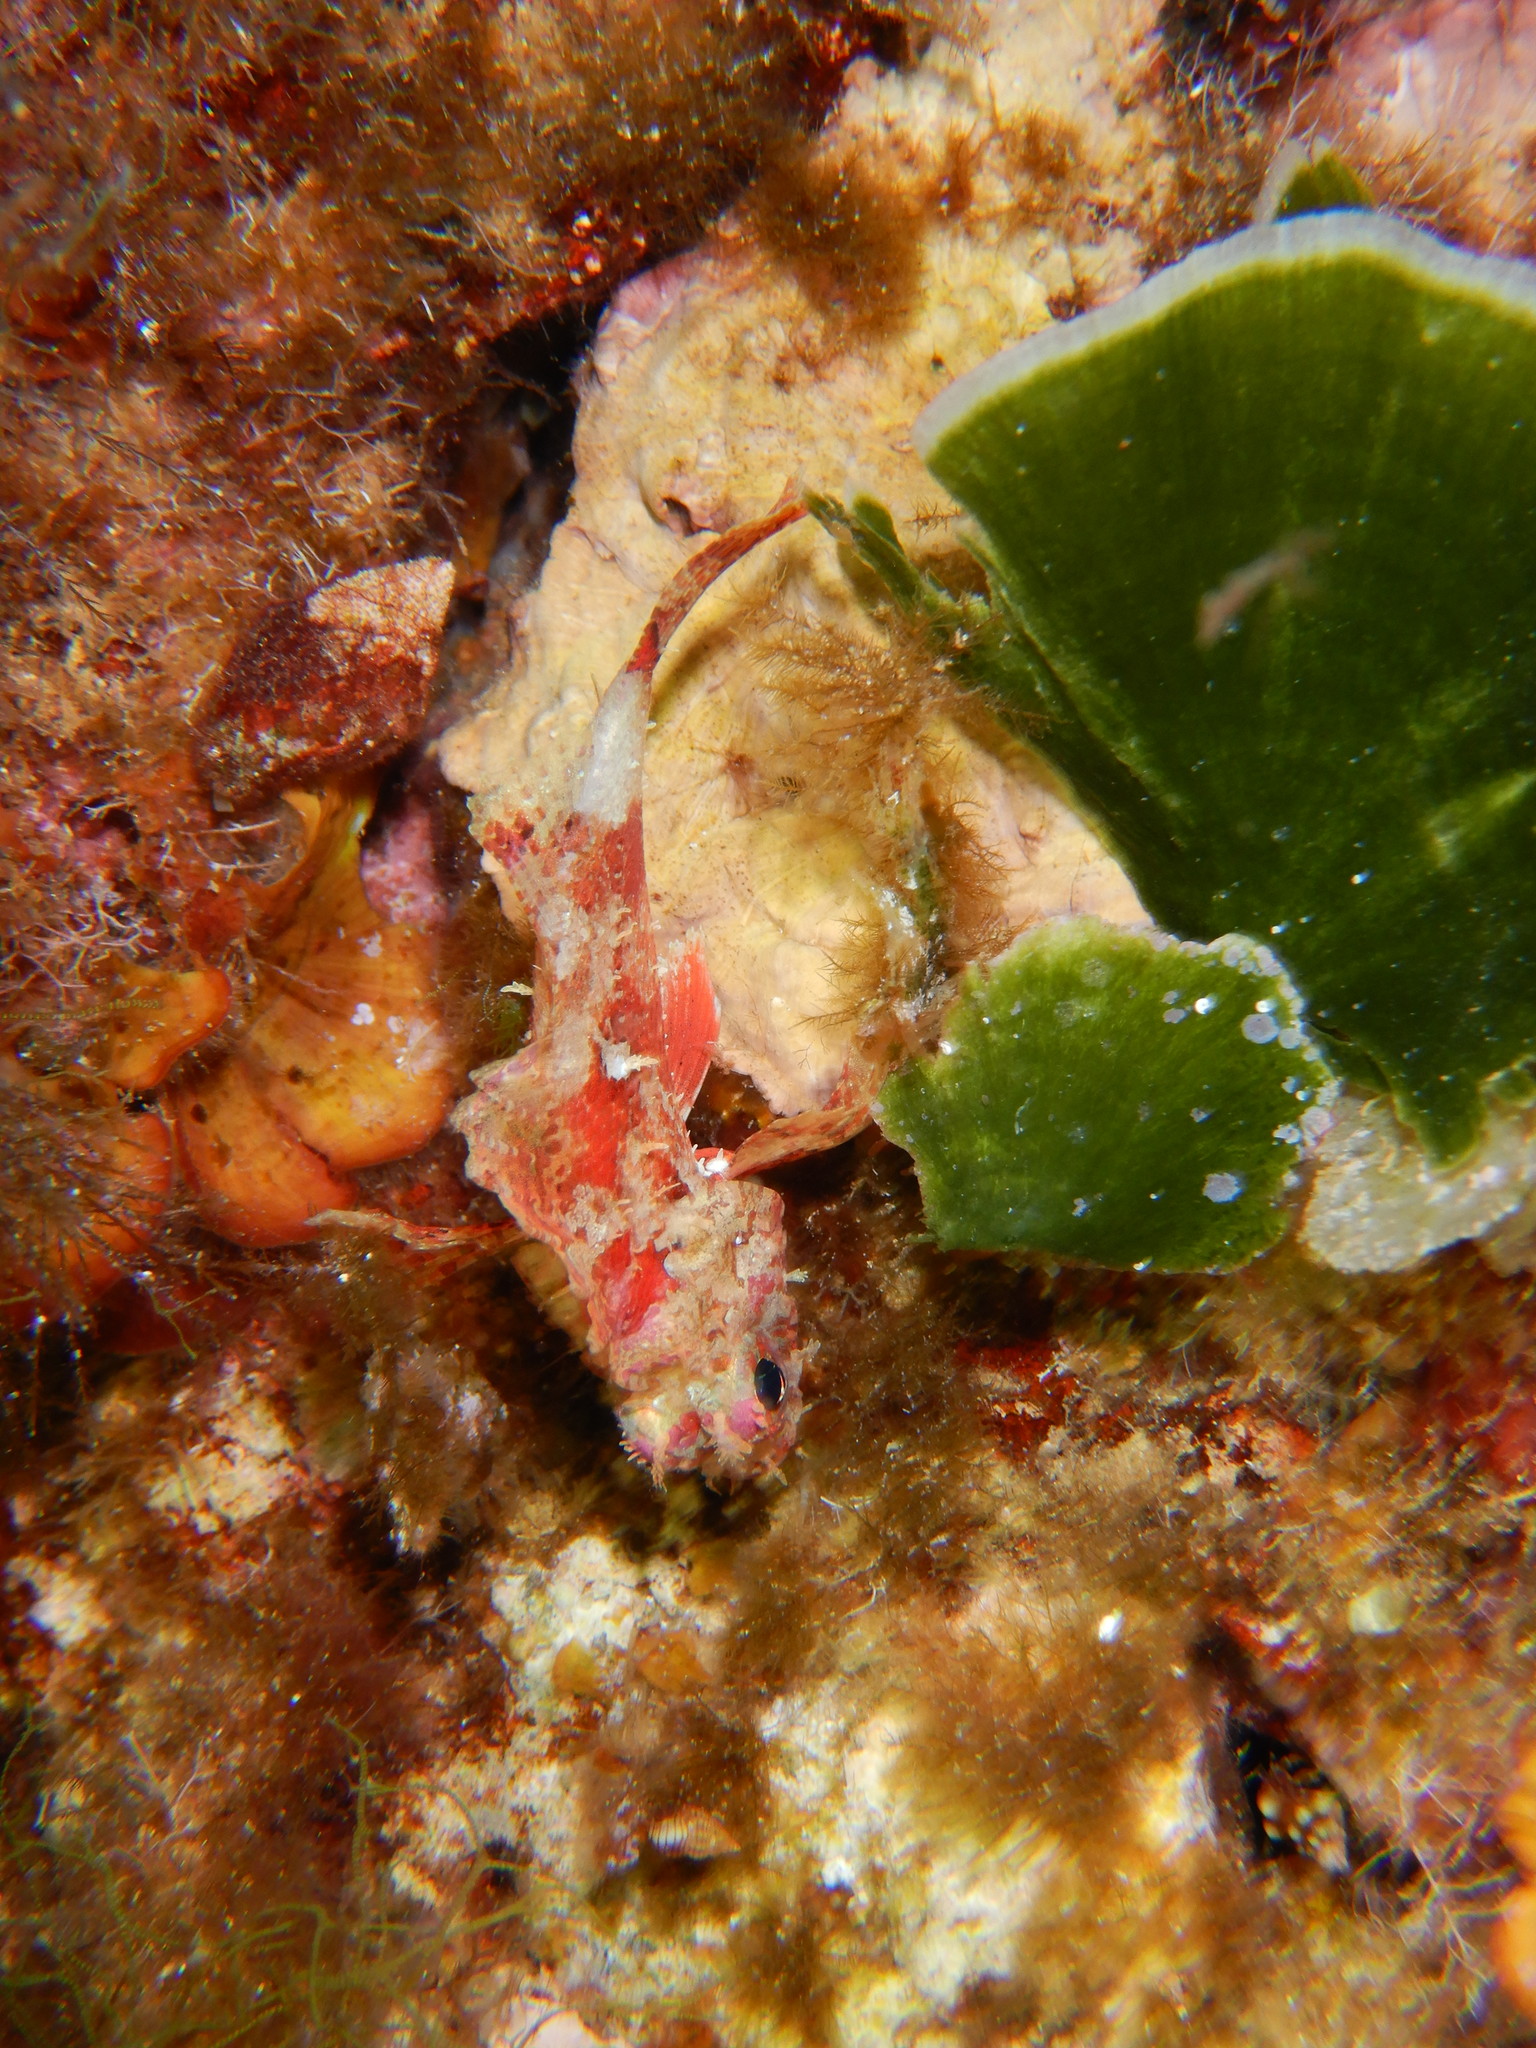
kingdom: Animalia
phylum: Chordata
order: Scorpaeniformes
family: Scorpaenidae
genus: Scorpaena
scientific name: Scorpaena notata
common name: Small red scorpionfish
